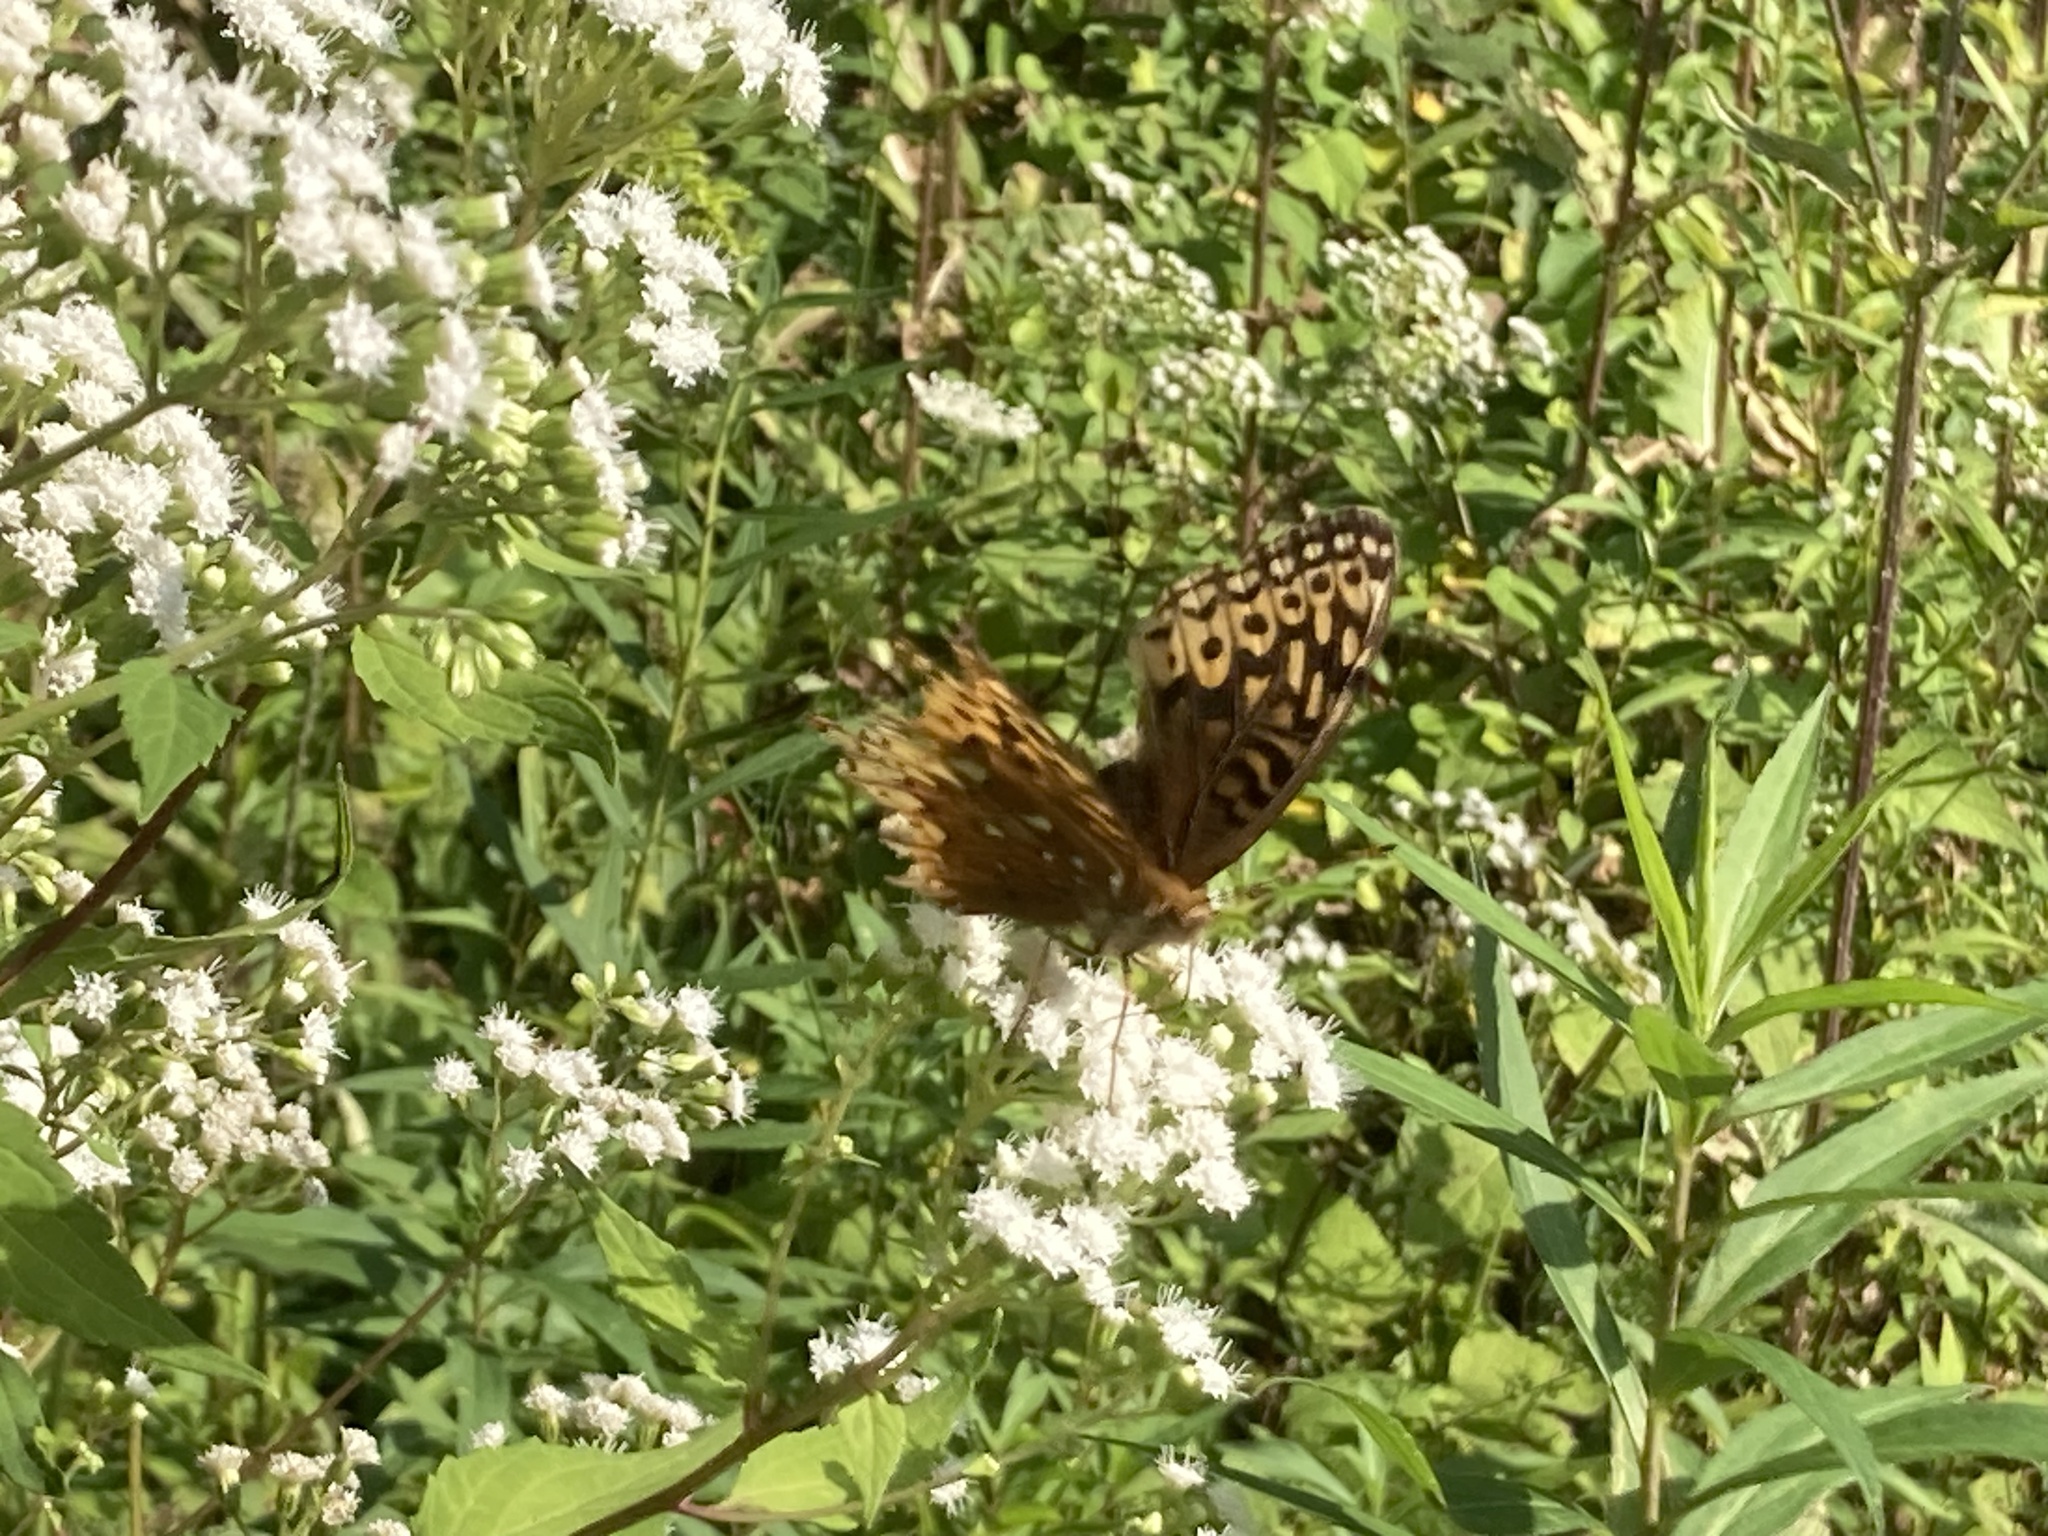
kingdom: Animalia
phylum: Arthropoda
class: Insecta
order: Lepidoptera
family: Nymphalidae
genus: Speyeria
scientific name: Speyeria cybele
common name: Great spangled fritillary
